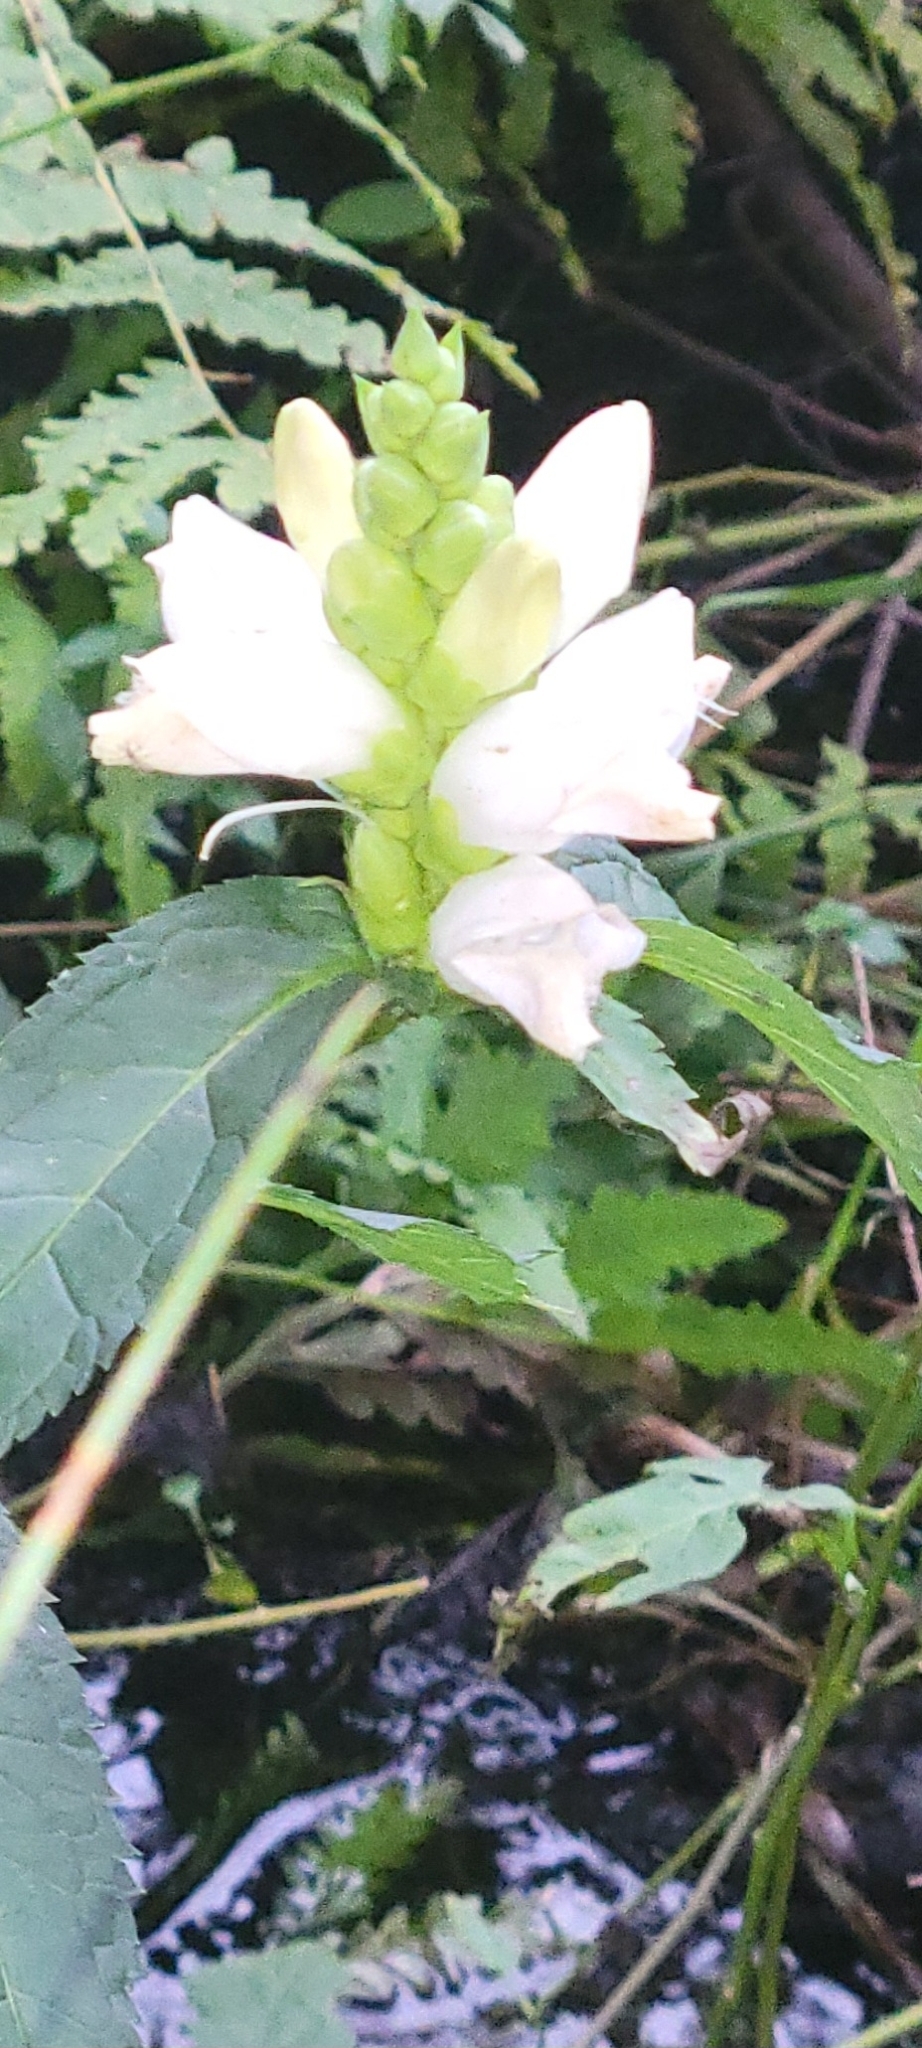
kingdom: Plantae
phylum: Tracheophyta
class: Magnoliopsida
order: Lamiales
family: Plantaginaceae
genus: Chelone
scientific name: Chelone glabra
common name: Snakehead
